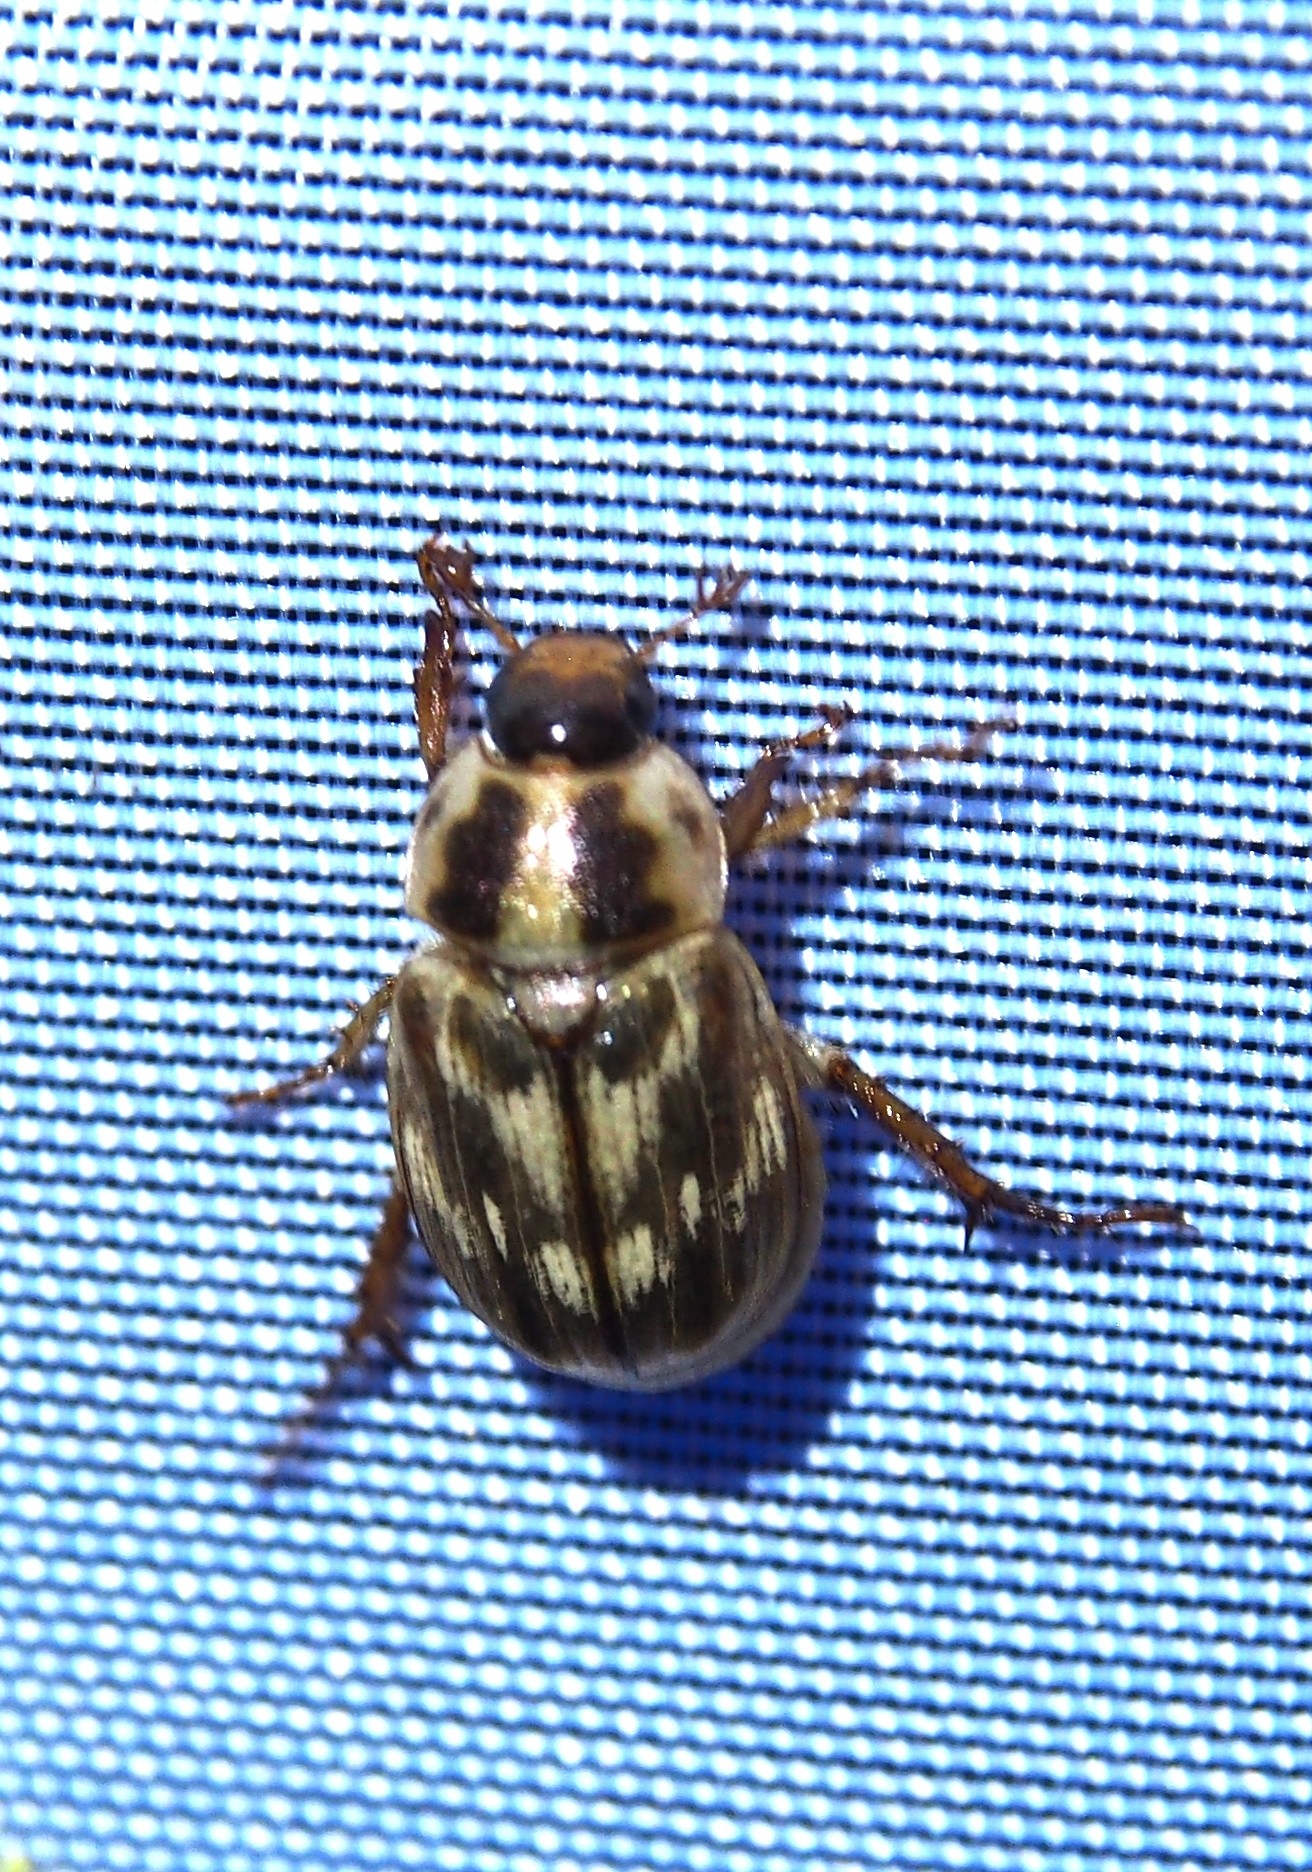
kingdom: Animalia
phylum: Arthropoda
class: Insecta
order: Coleoptera
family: Scarabaeidae
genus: Exomala
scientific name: Exomala orientalis
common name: Oriental beetle
